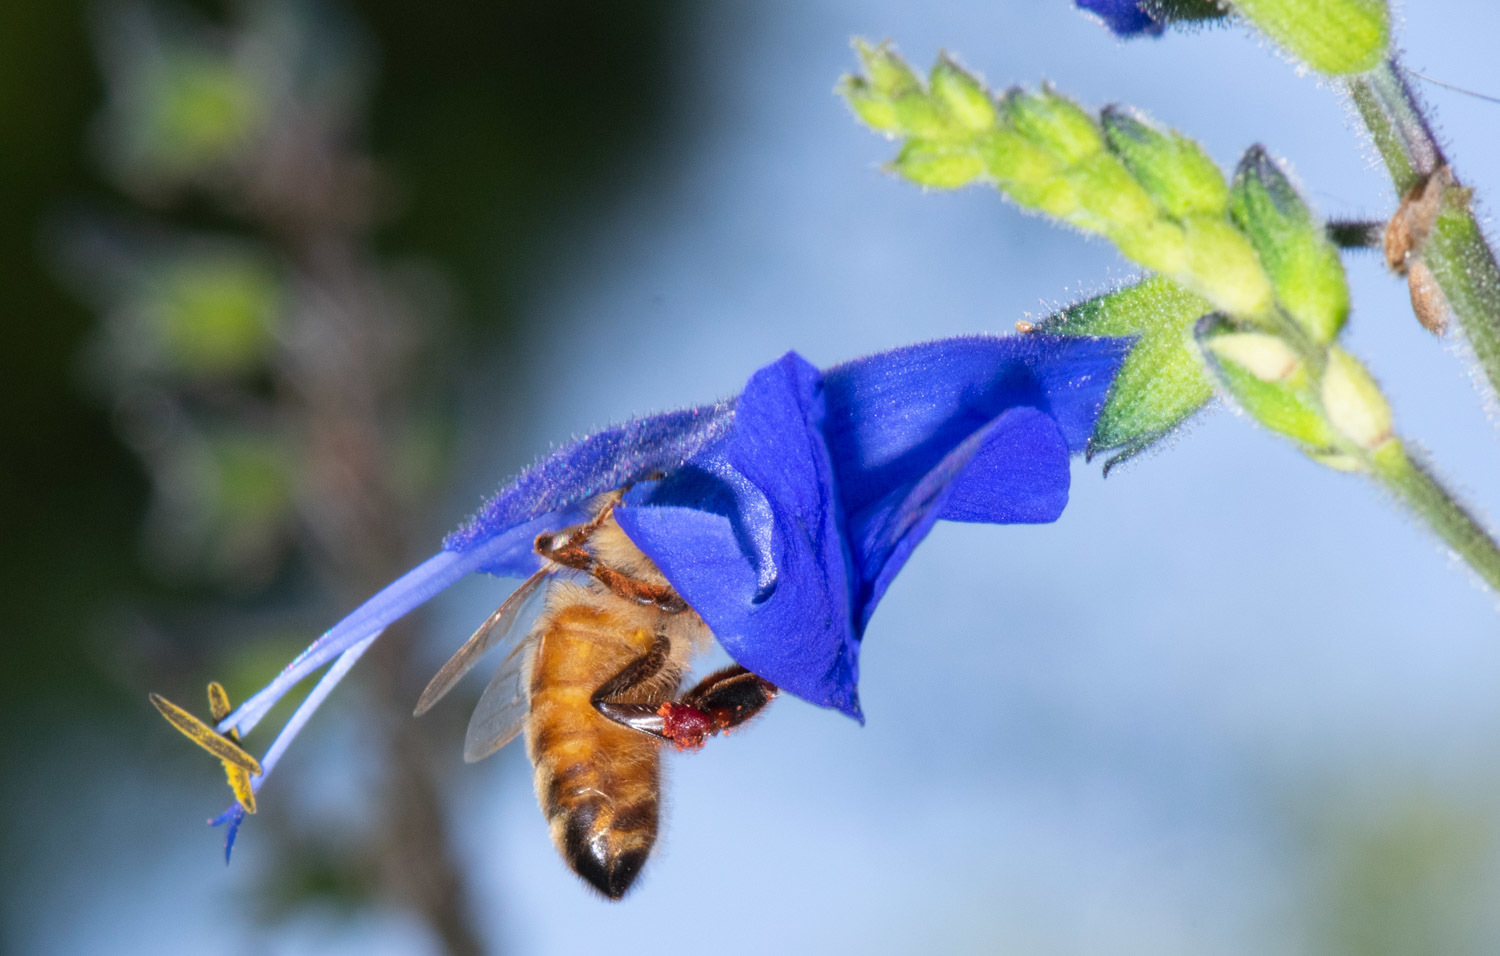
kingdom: Animalia
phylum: Arthropoda
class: Insecta
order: Hymenoptera
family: Apidae
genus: Apis
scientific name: Apis mellifera
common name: Honey bee
